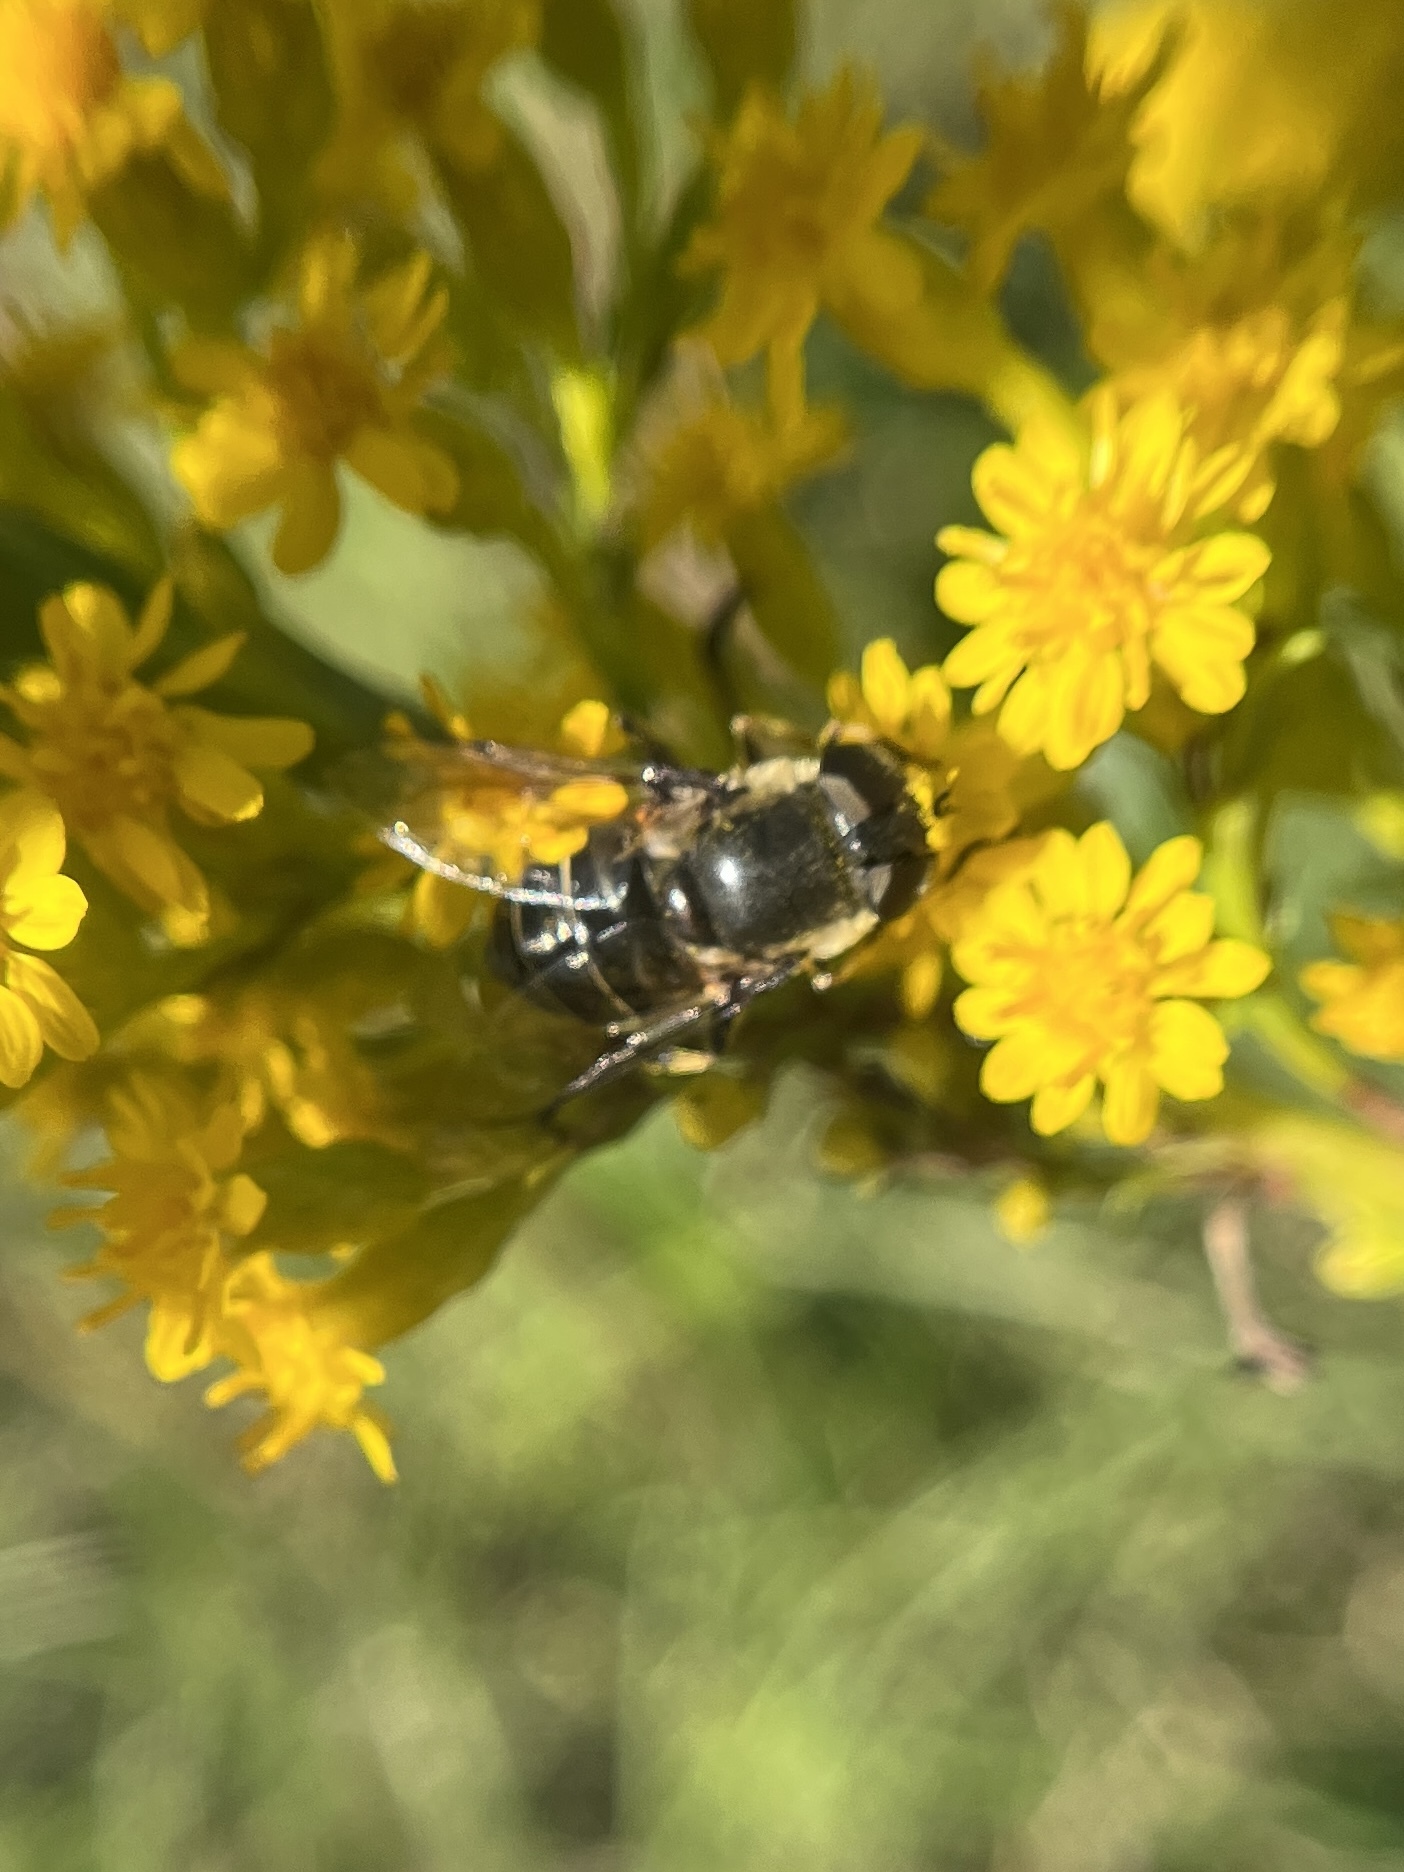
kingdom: Animalia
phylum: Arthropoda
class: Insecta
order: Diptera
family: Syrphidae
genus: Eristalis
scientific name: Eristalis dimidiata
